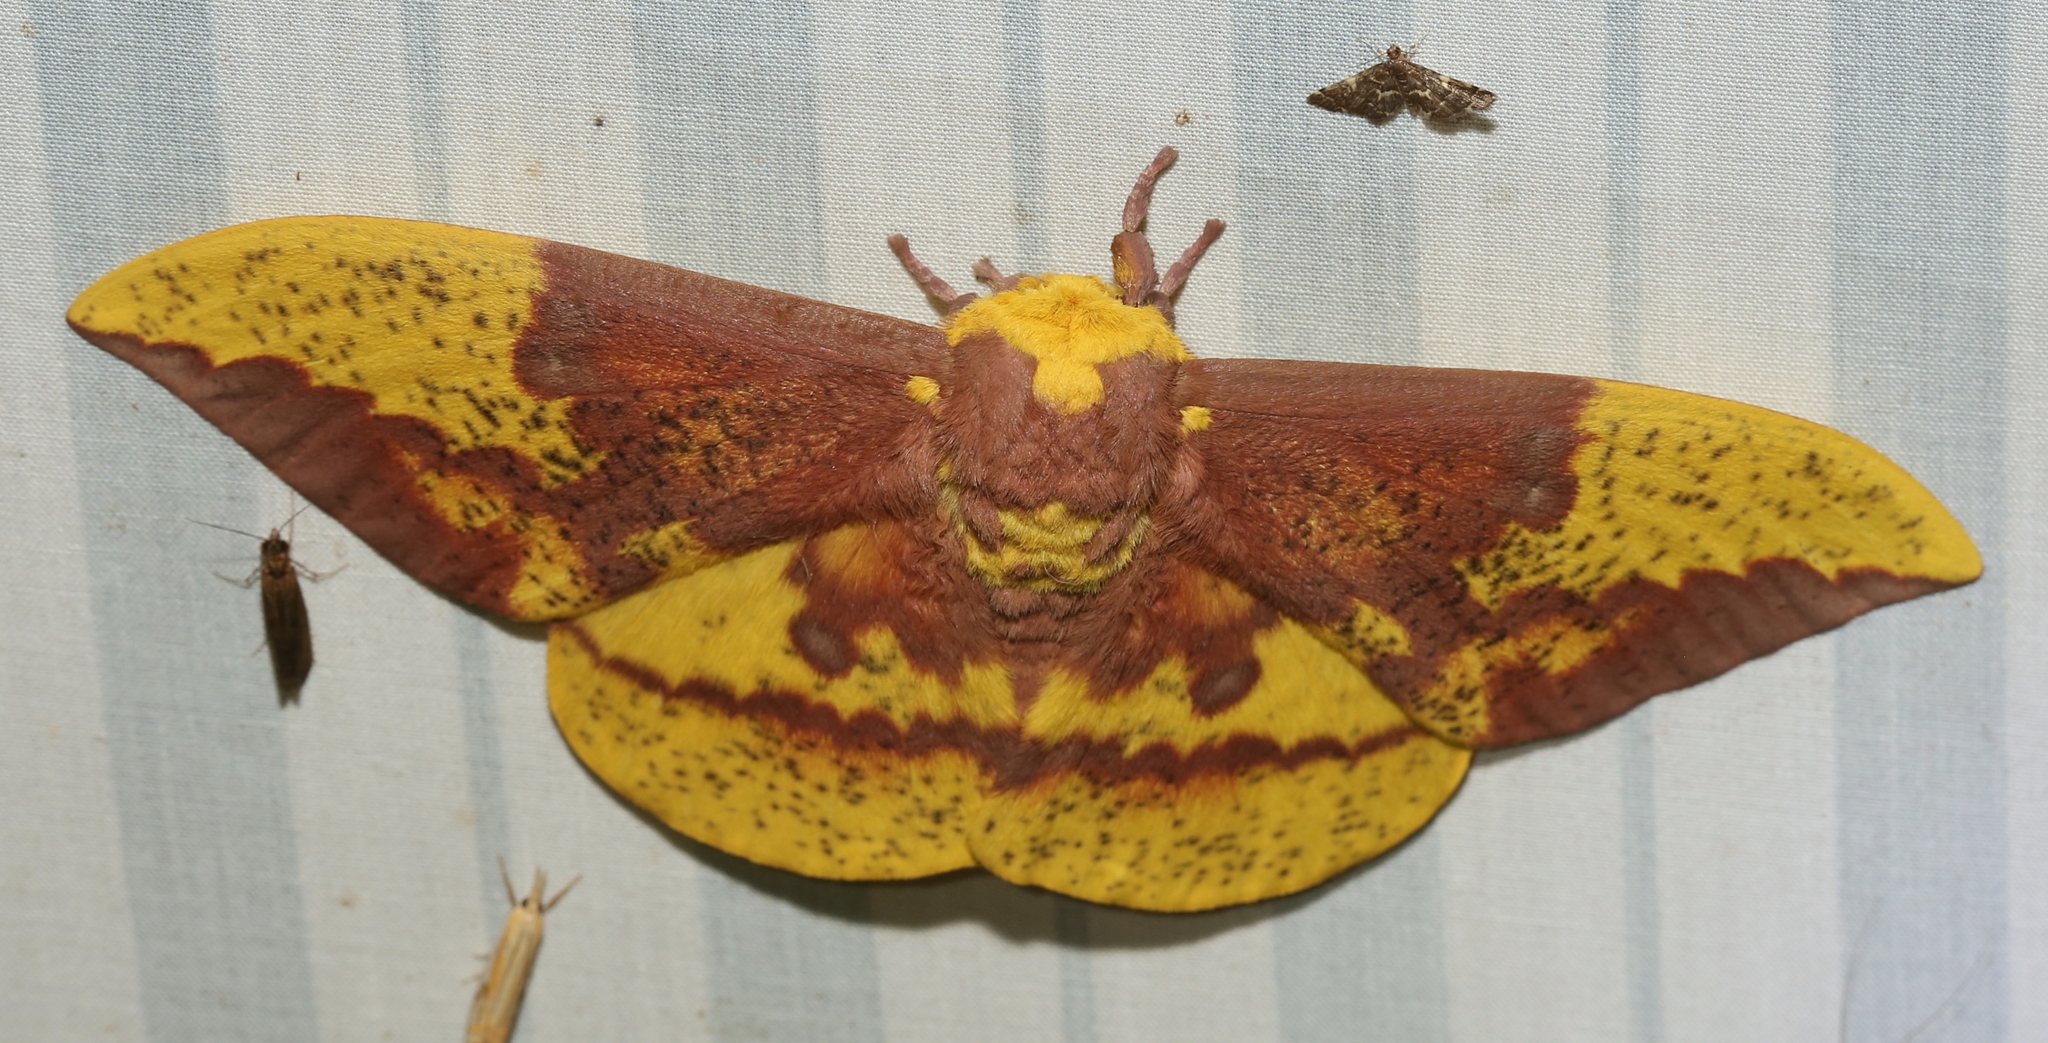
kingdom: Animalia
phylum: Arthropoda
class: Insecta
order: Lepidoptera
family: Saturniidae
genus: Eacles
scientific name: Eacles imperialis
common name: Imperial moth
